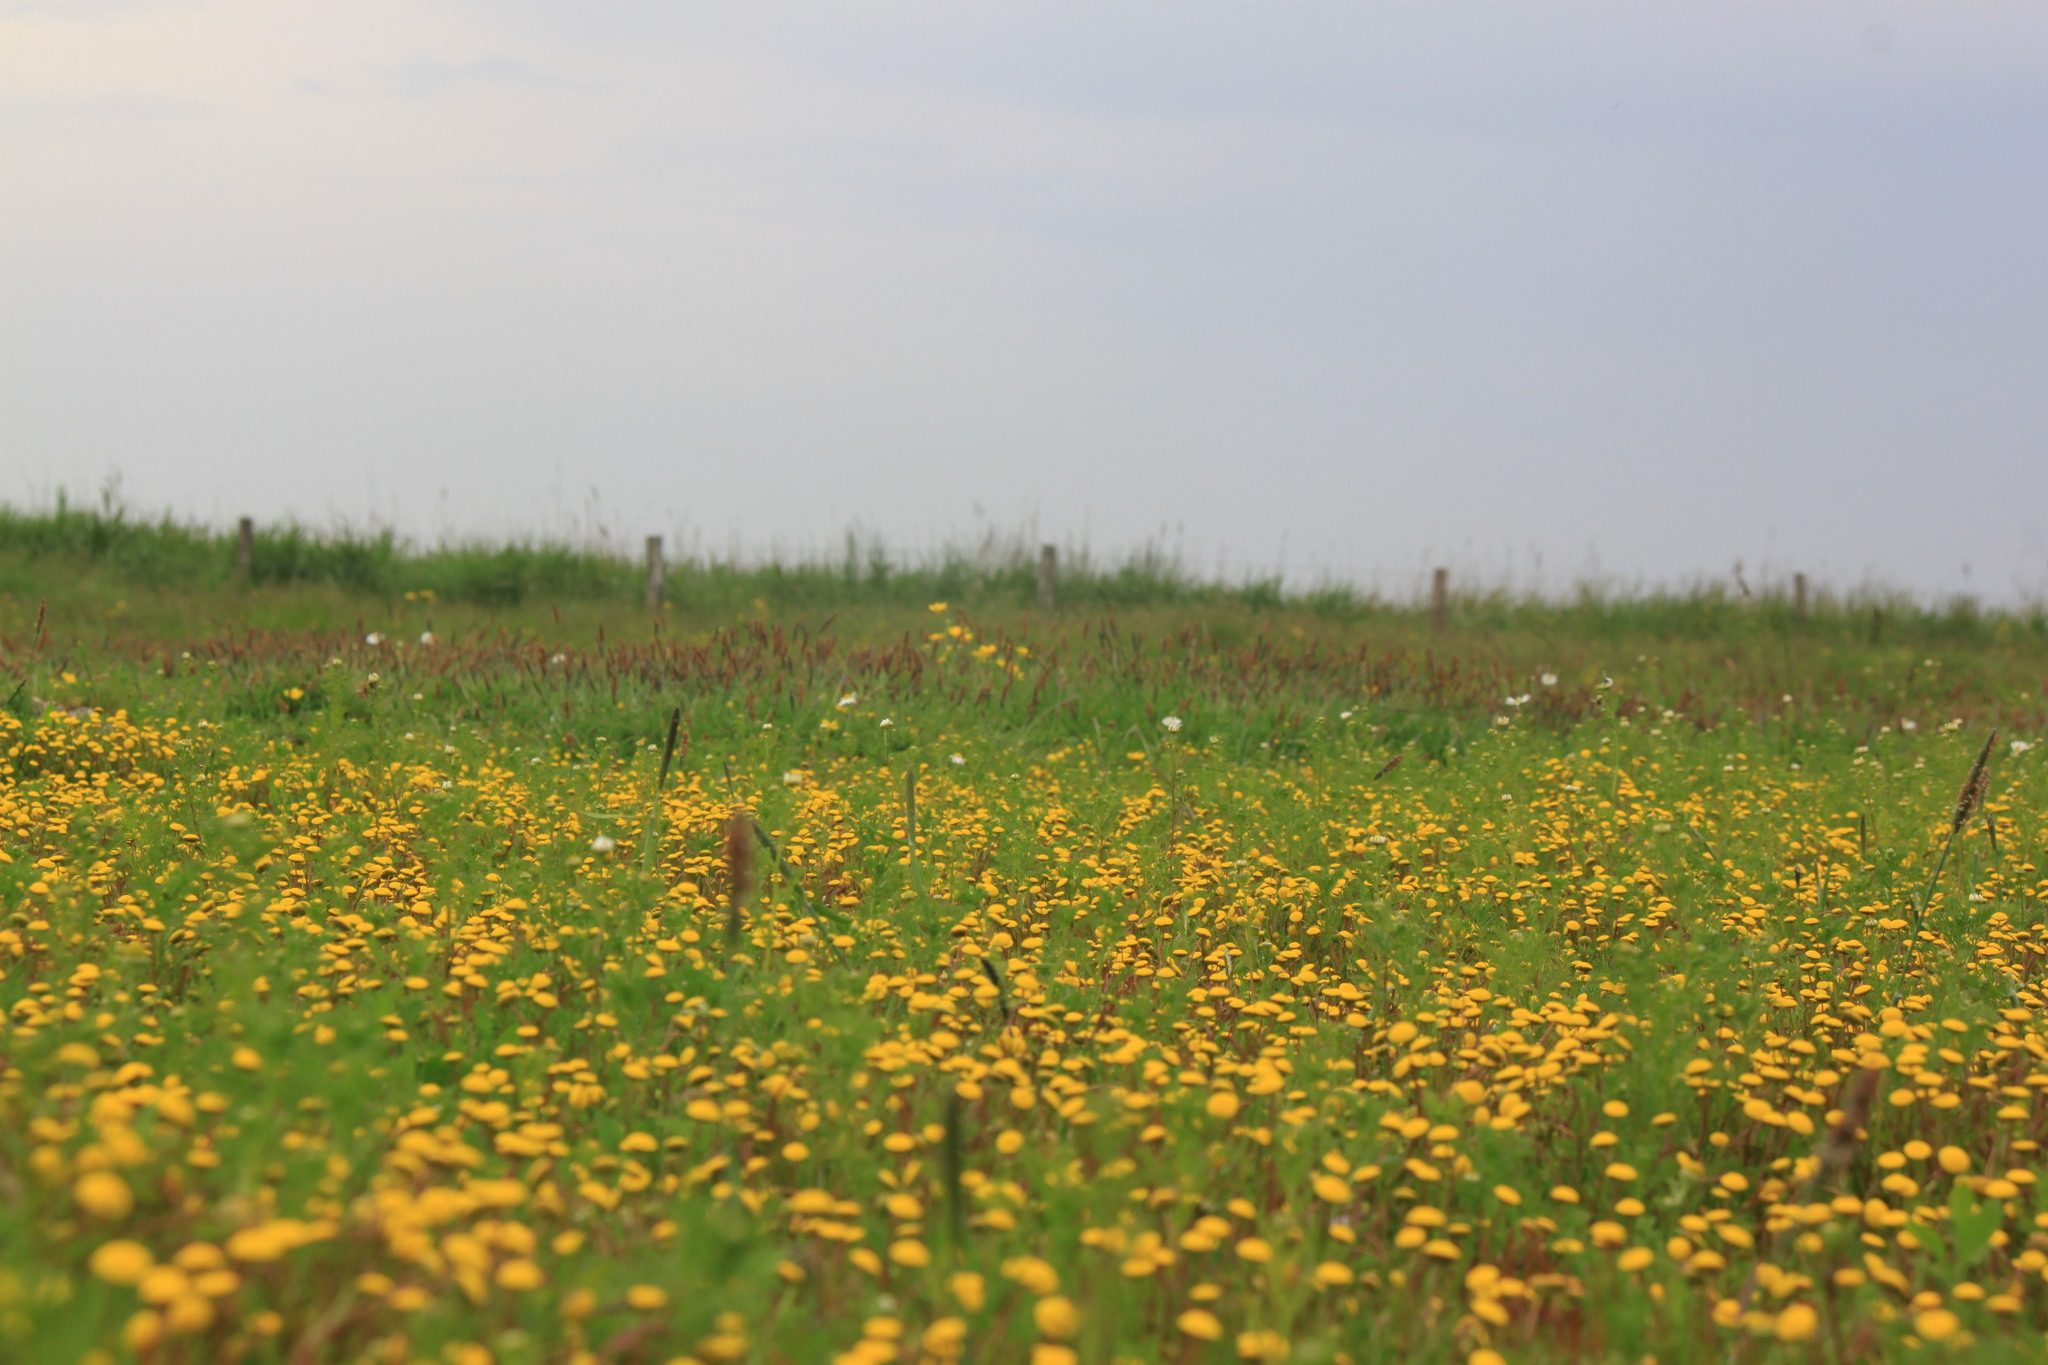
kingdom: Plantae
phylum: Tracheophyta
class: Magnoliopsida
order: Asterales
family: Asteraceae
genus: Cotula
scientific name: Cotula coronopifolia
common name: Buttonweed
